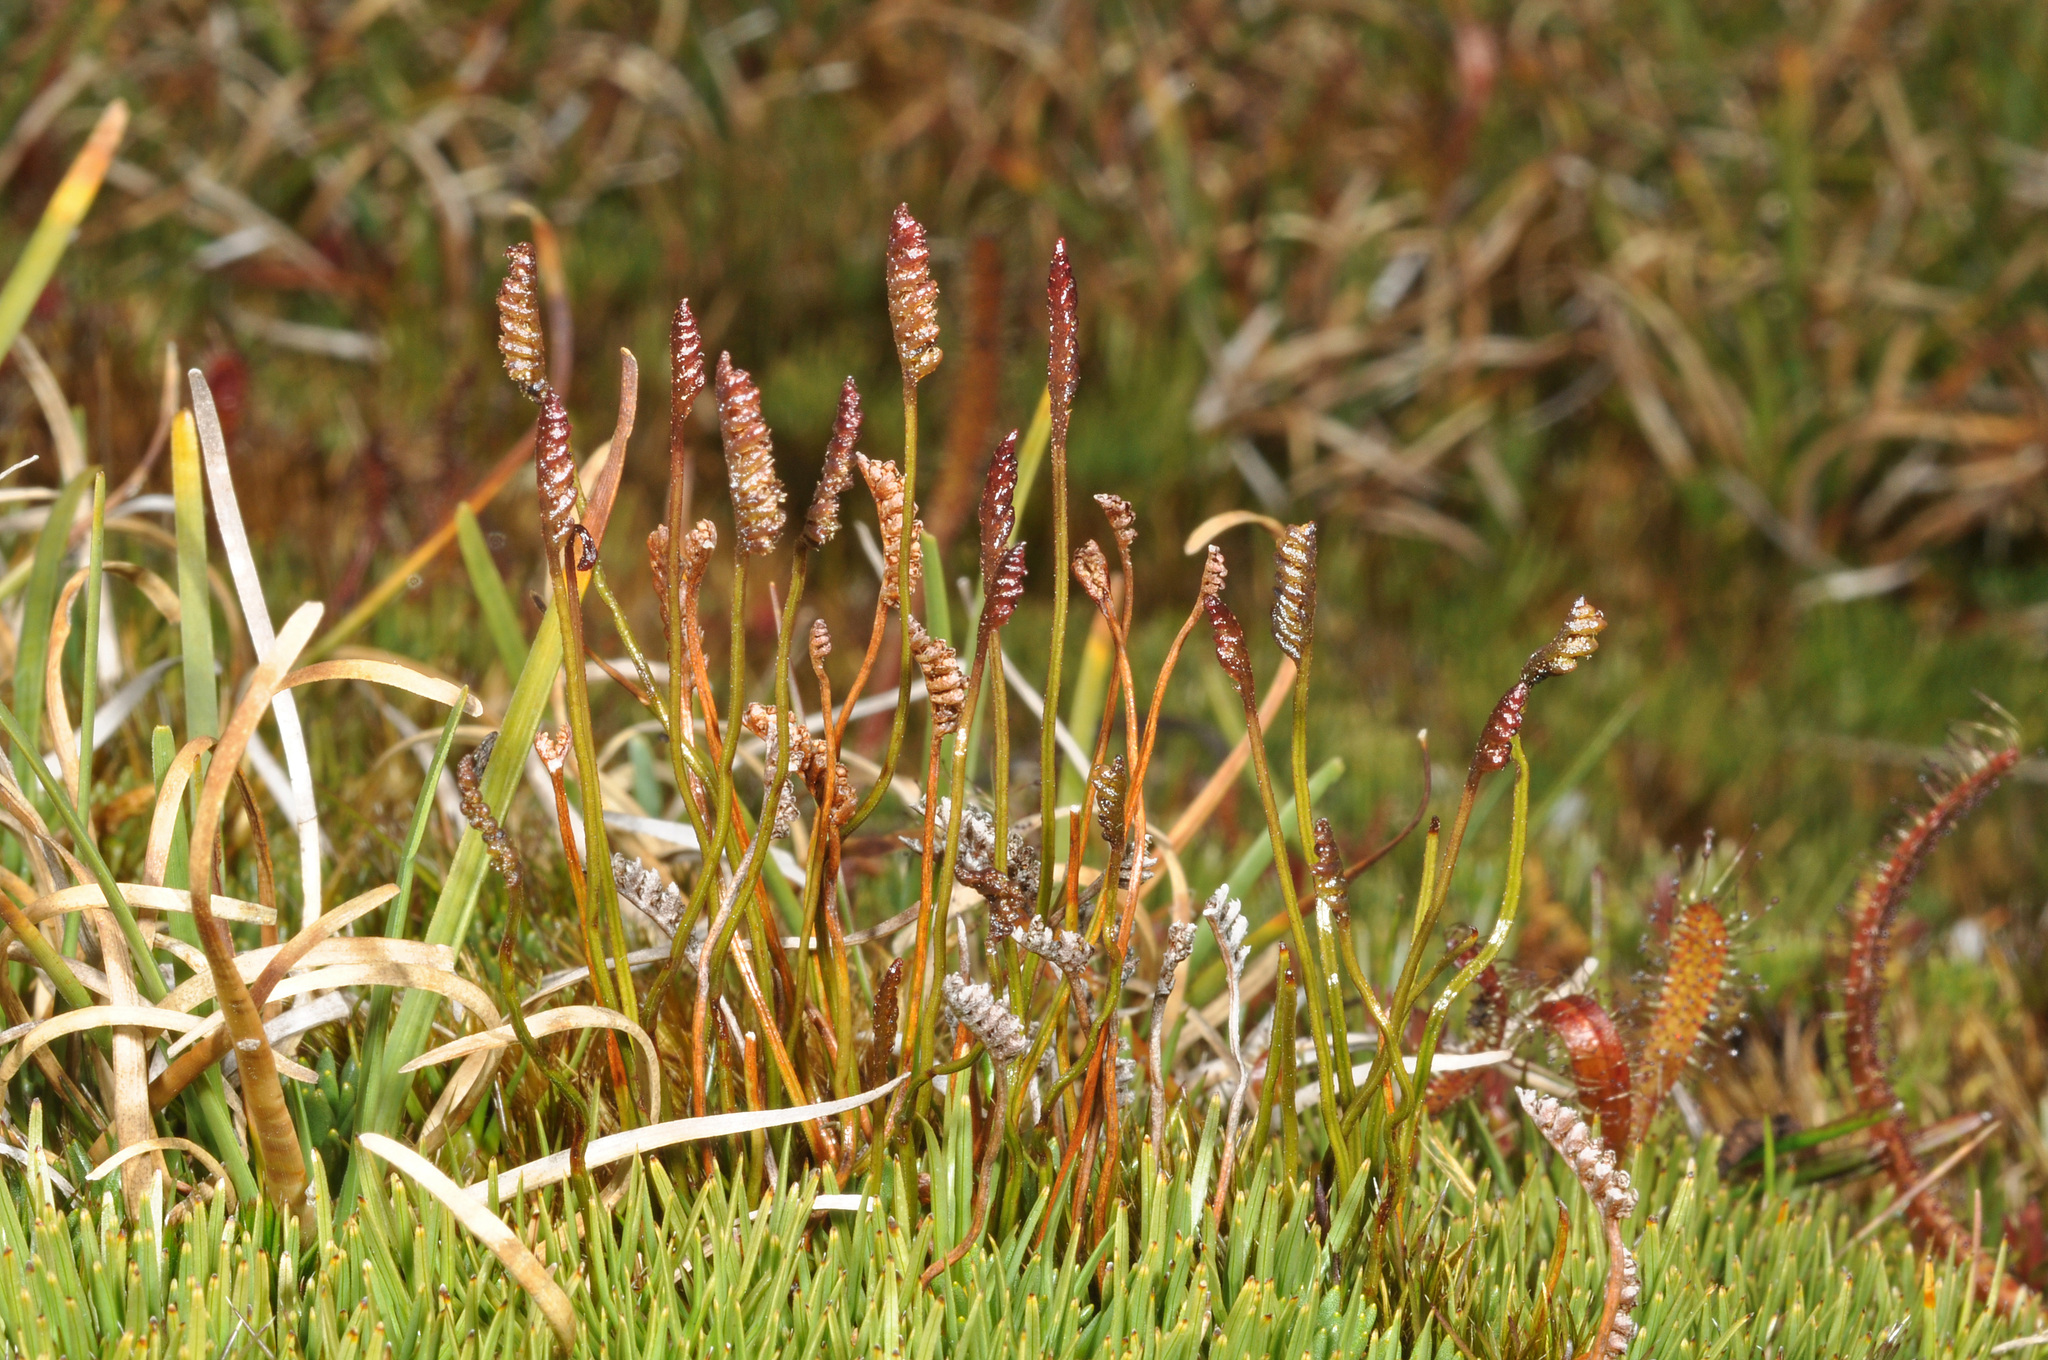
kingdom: Plantae
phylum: Tracheophyta
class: Polypodiopsida
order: Schizaeales
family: Schizaeaceae
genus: Microschizaea
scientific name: Microschizaea australis
